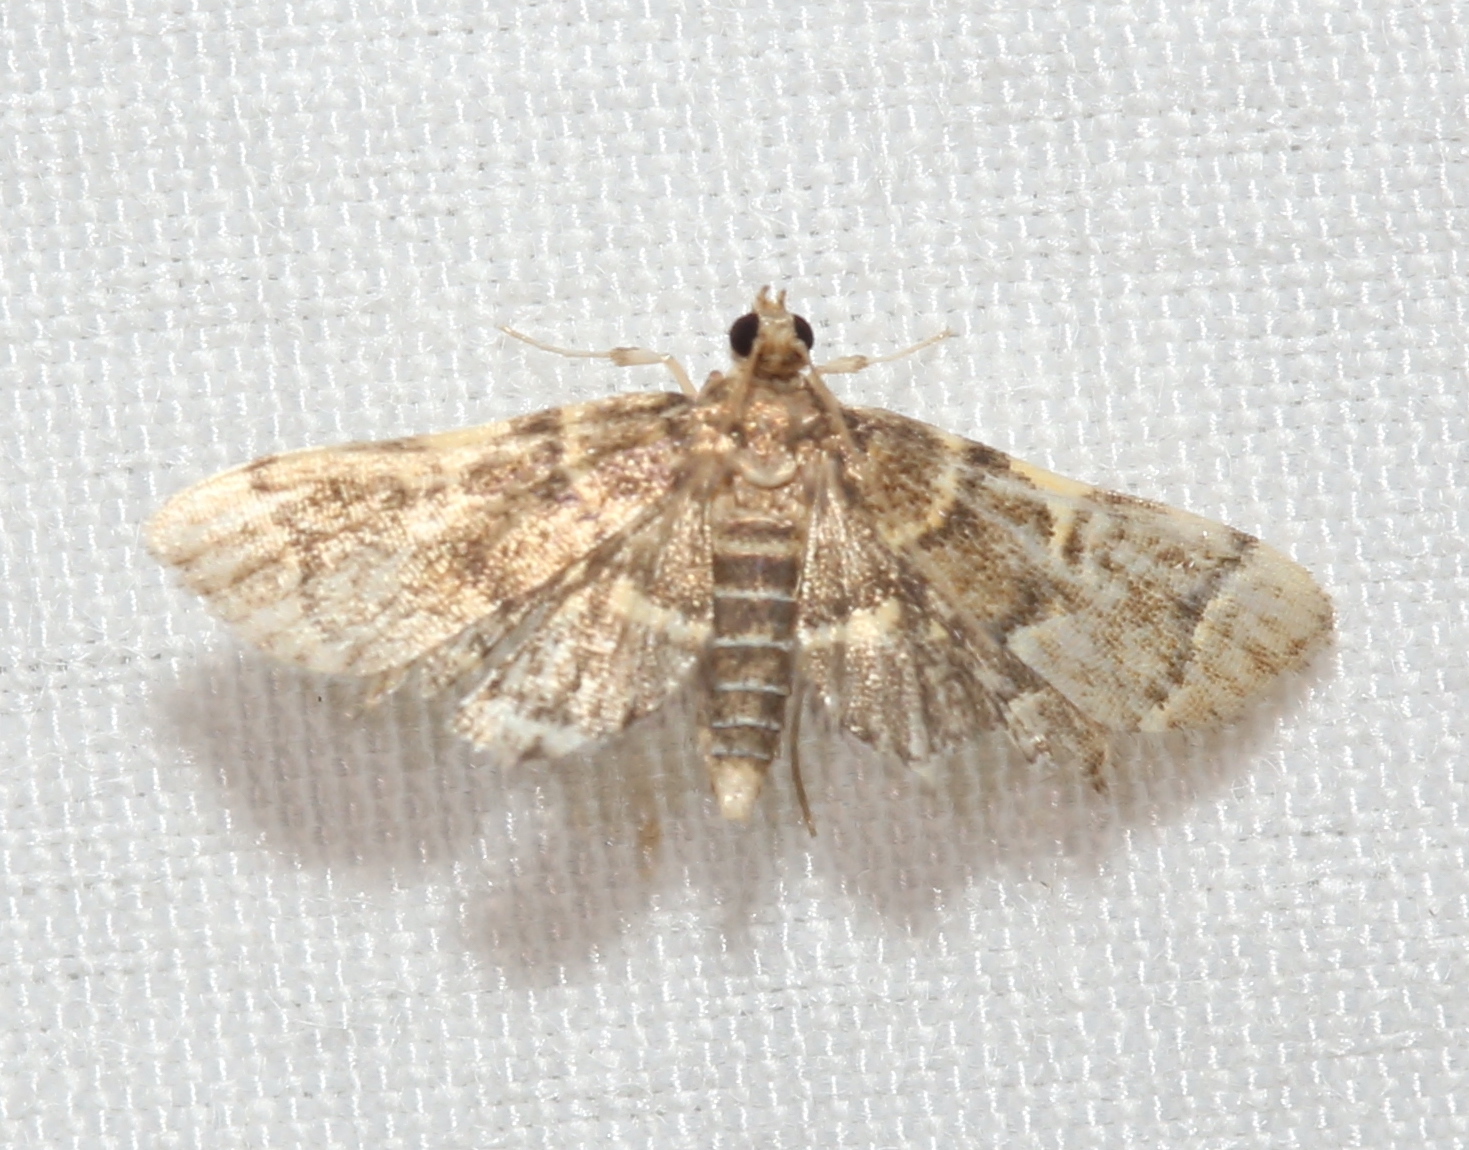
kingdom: Animalia
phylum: Arthropoda
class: Insecta
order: Lepidoptera
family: Crambidae
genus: Anageshna
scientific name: Anageshna primordialis
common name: Yellow-spotted webworm moth
